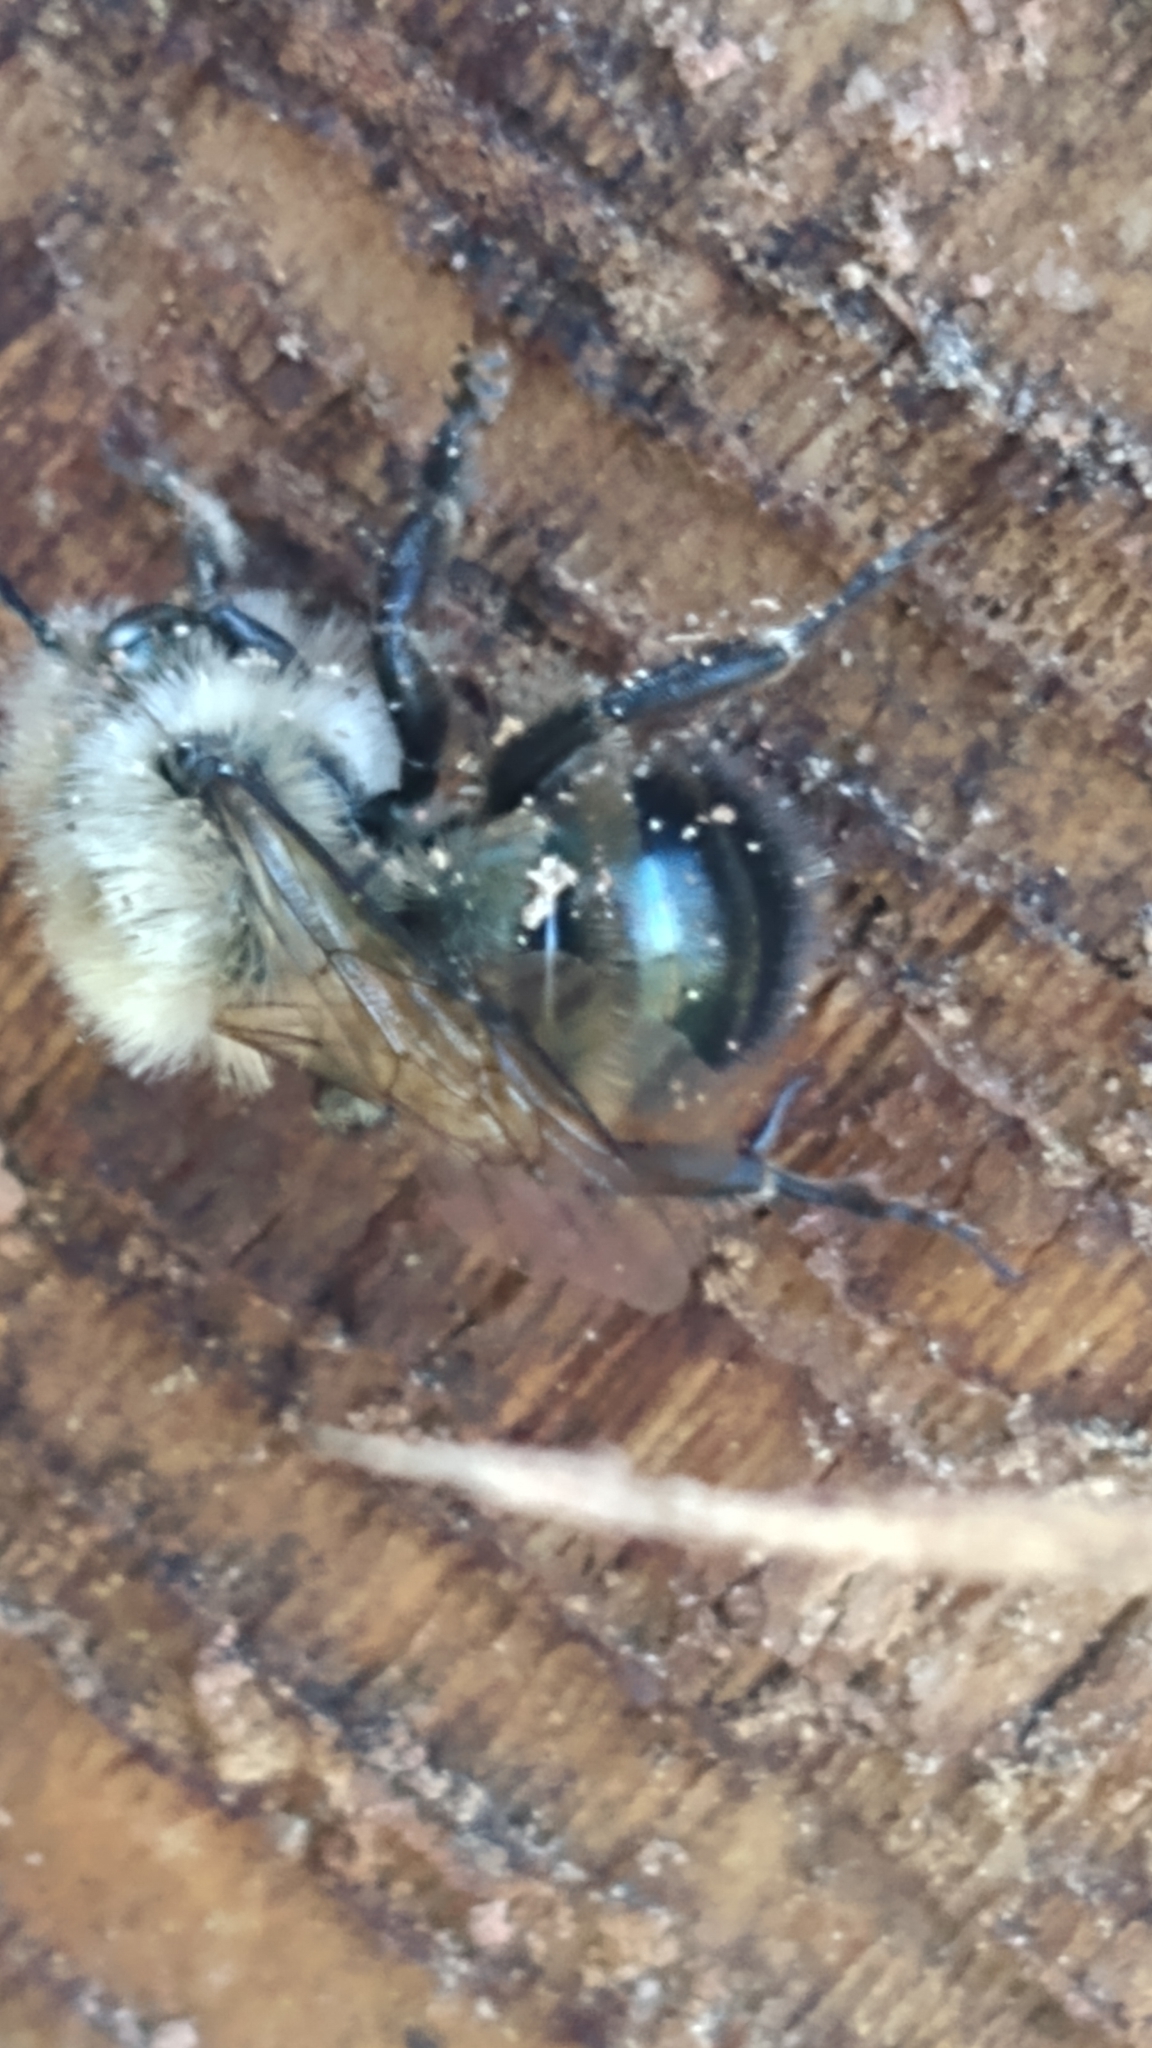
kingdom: Animalia
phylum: Arthropoda
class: Insecta
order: Hymenoptera
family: Megachilidae
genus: Osmia
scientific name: Osmia bucephala
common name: Bufflehead mason bee
